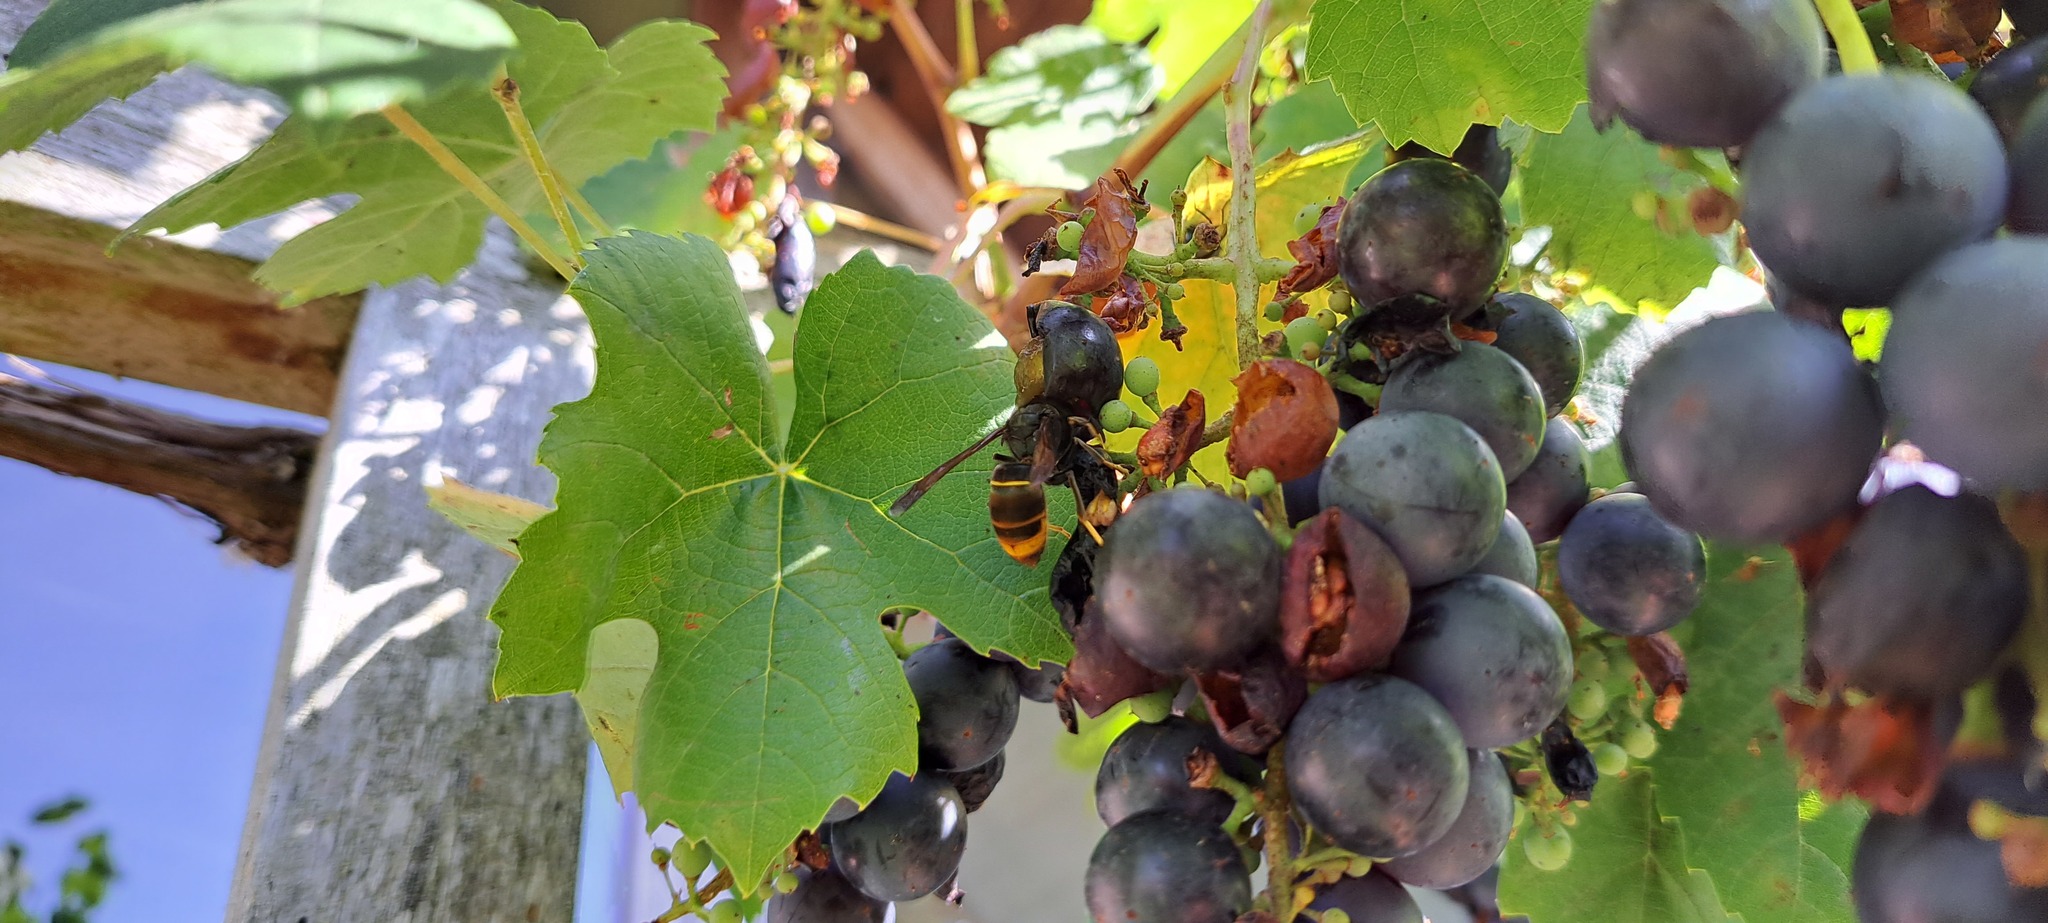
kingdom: Animalia
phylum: Arthropoda
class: Insecta
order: Hymenoptera
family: Vespidae
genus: Vespa
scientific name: Vespa velutina
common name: Asian hornet
